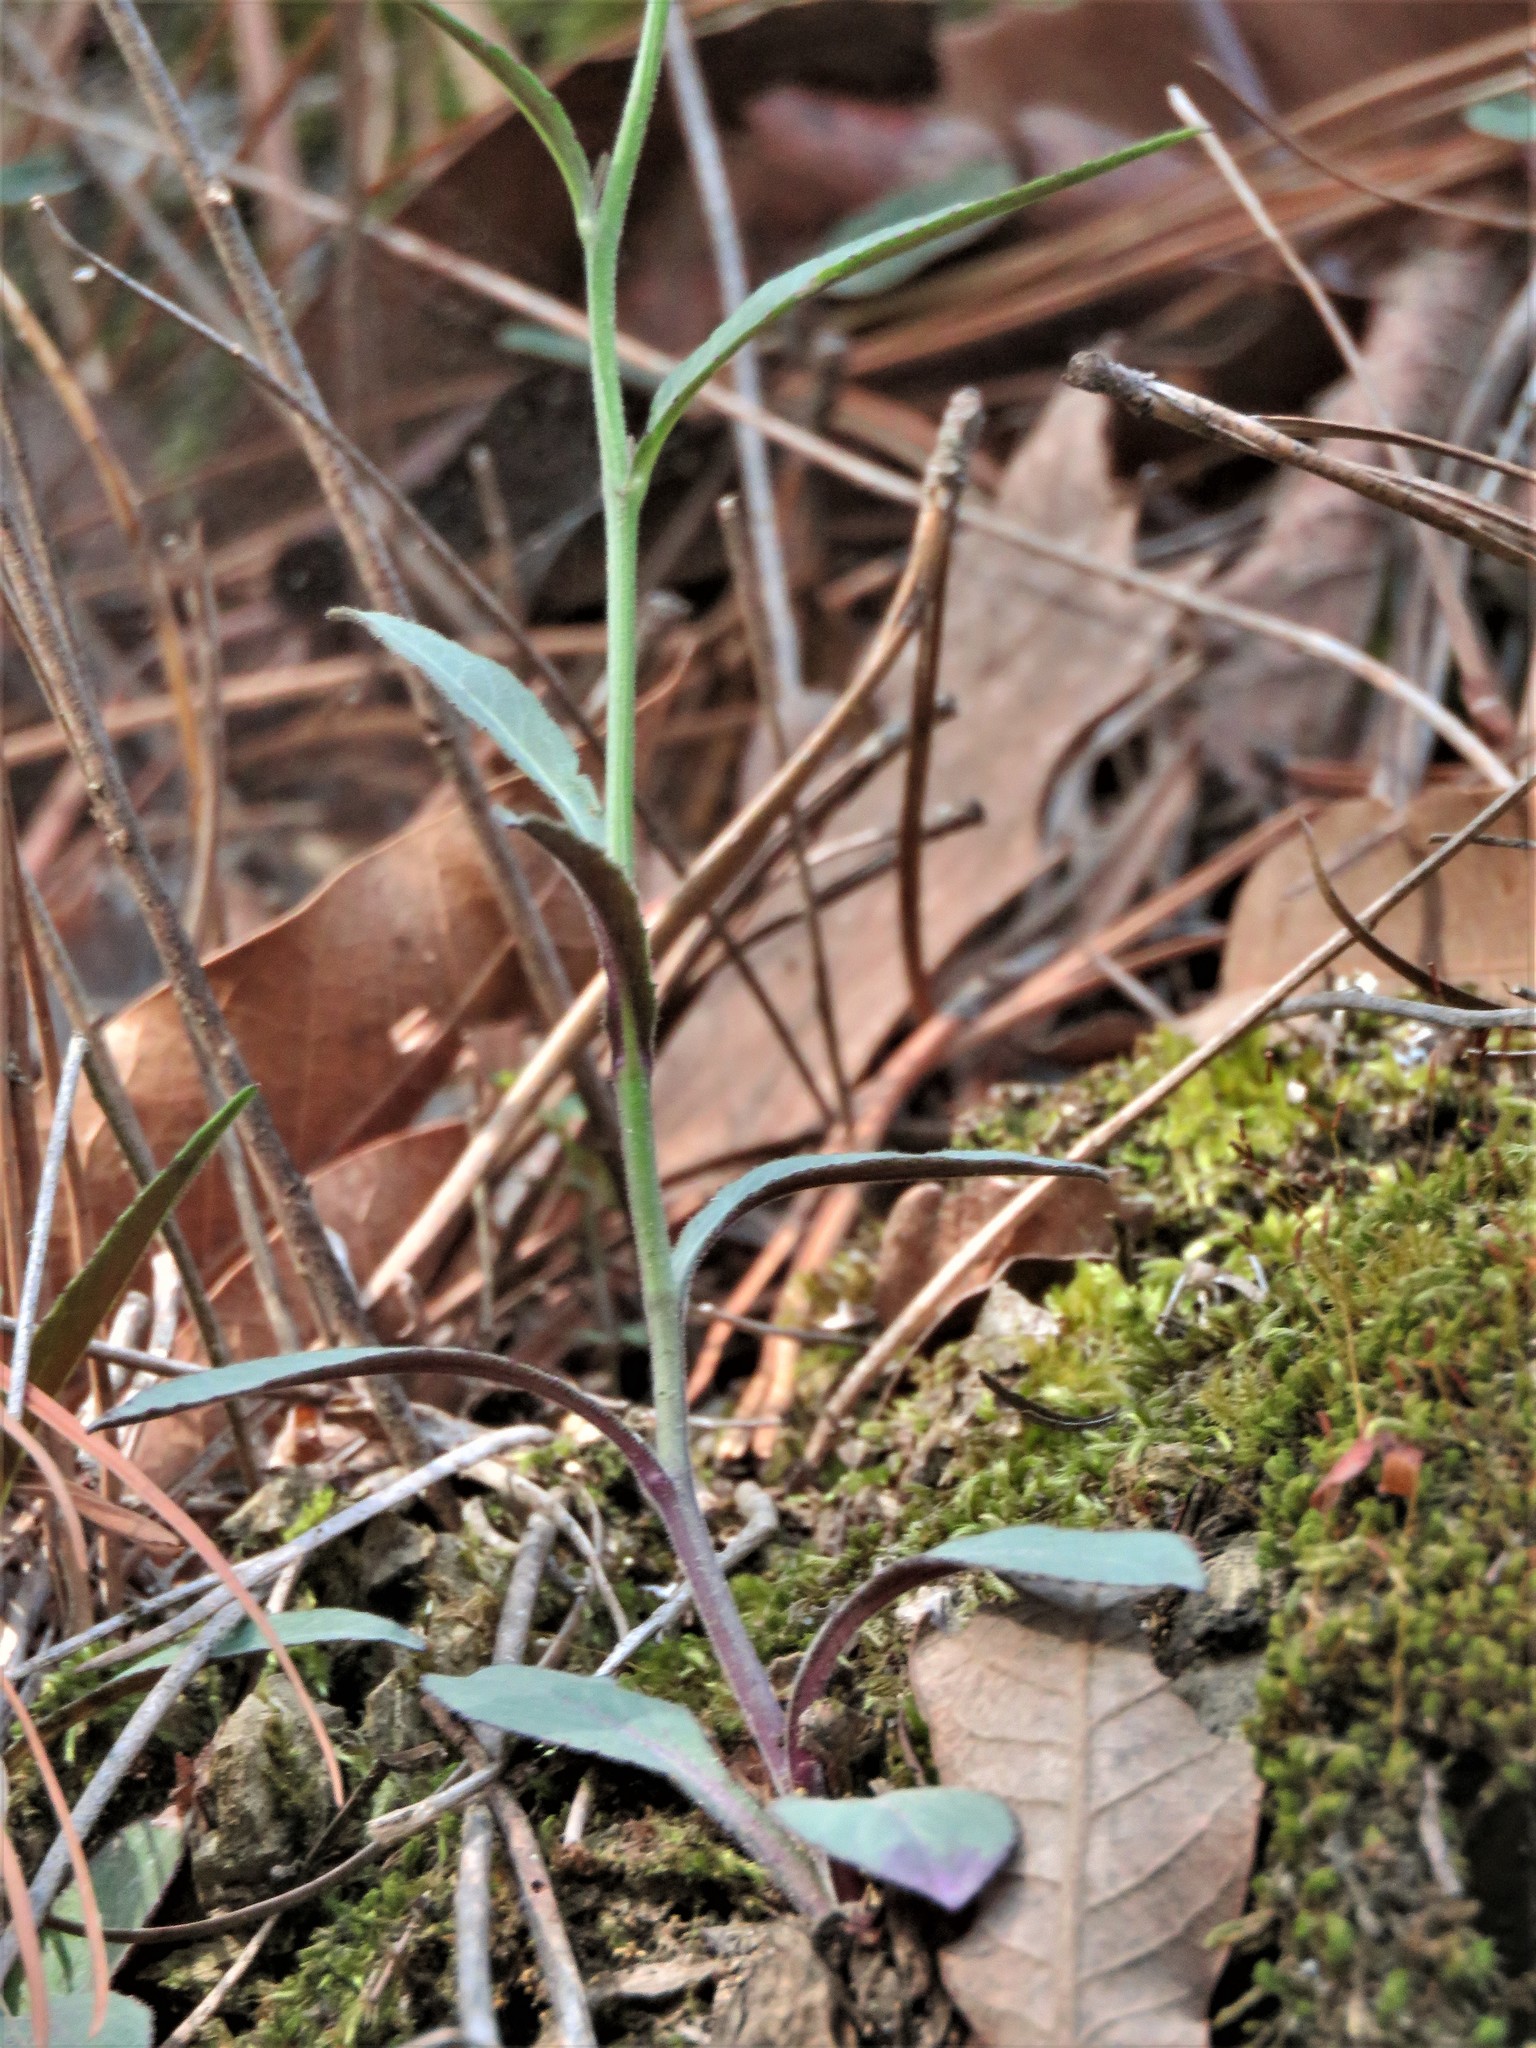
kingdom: Plantae
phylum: Tracheophyta
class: Magnoliopsida
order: Asterales
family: Campanulaceae
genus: Lobelia
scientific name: Lobelia sublibera
